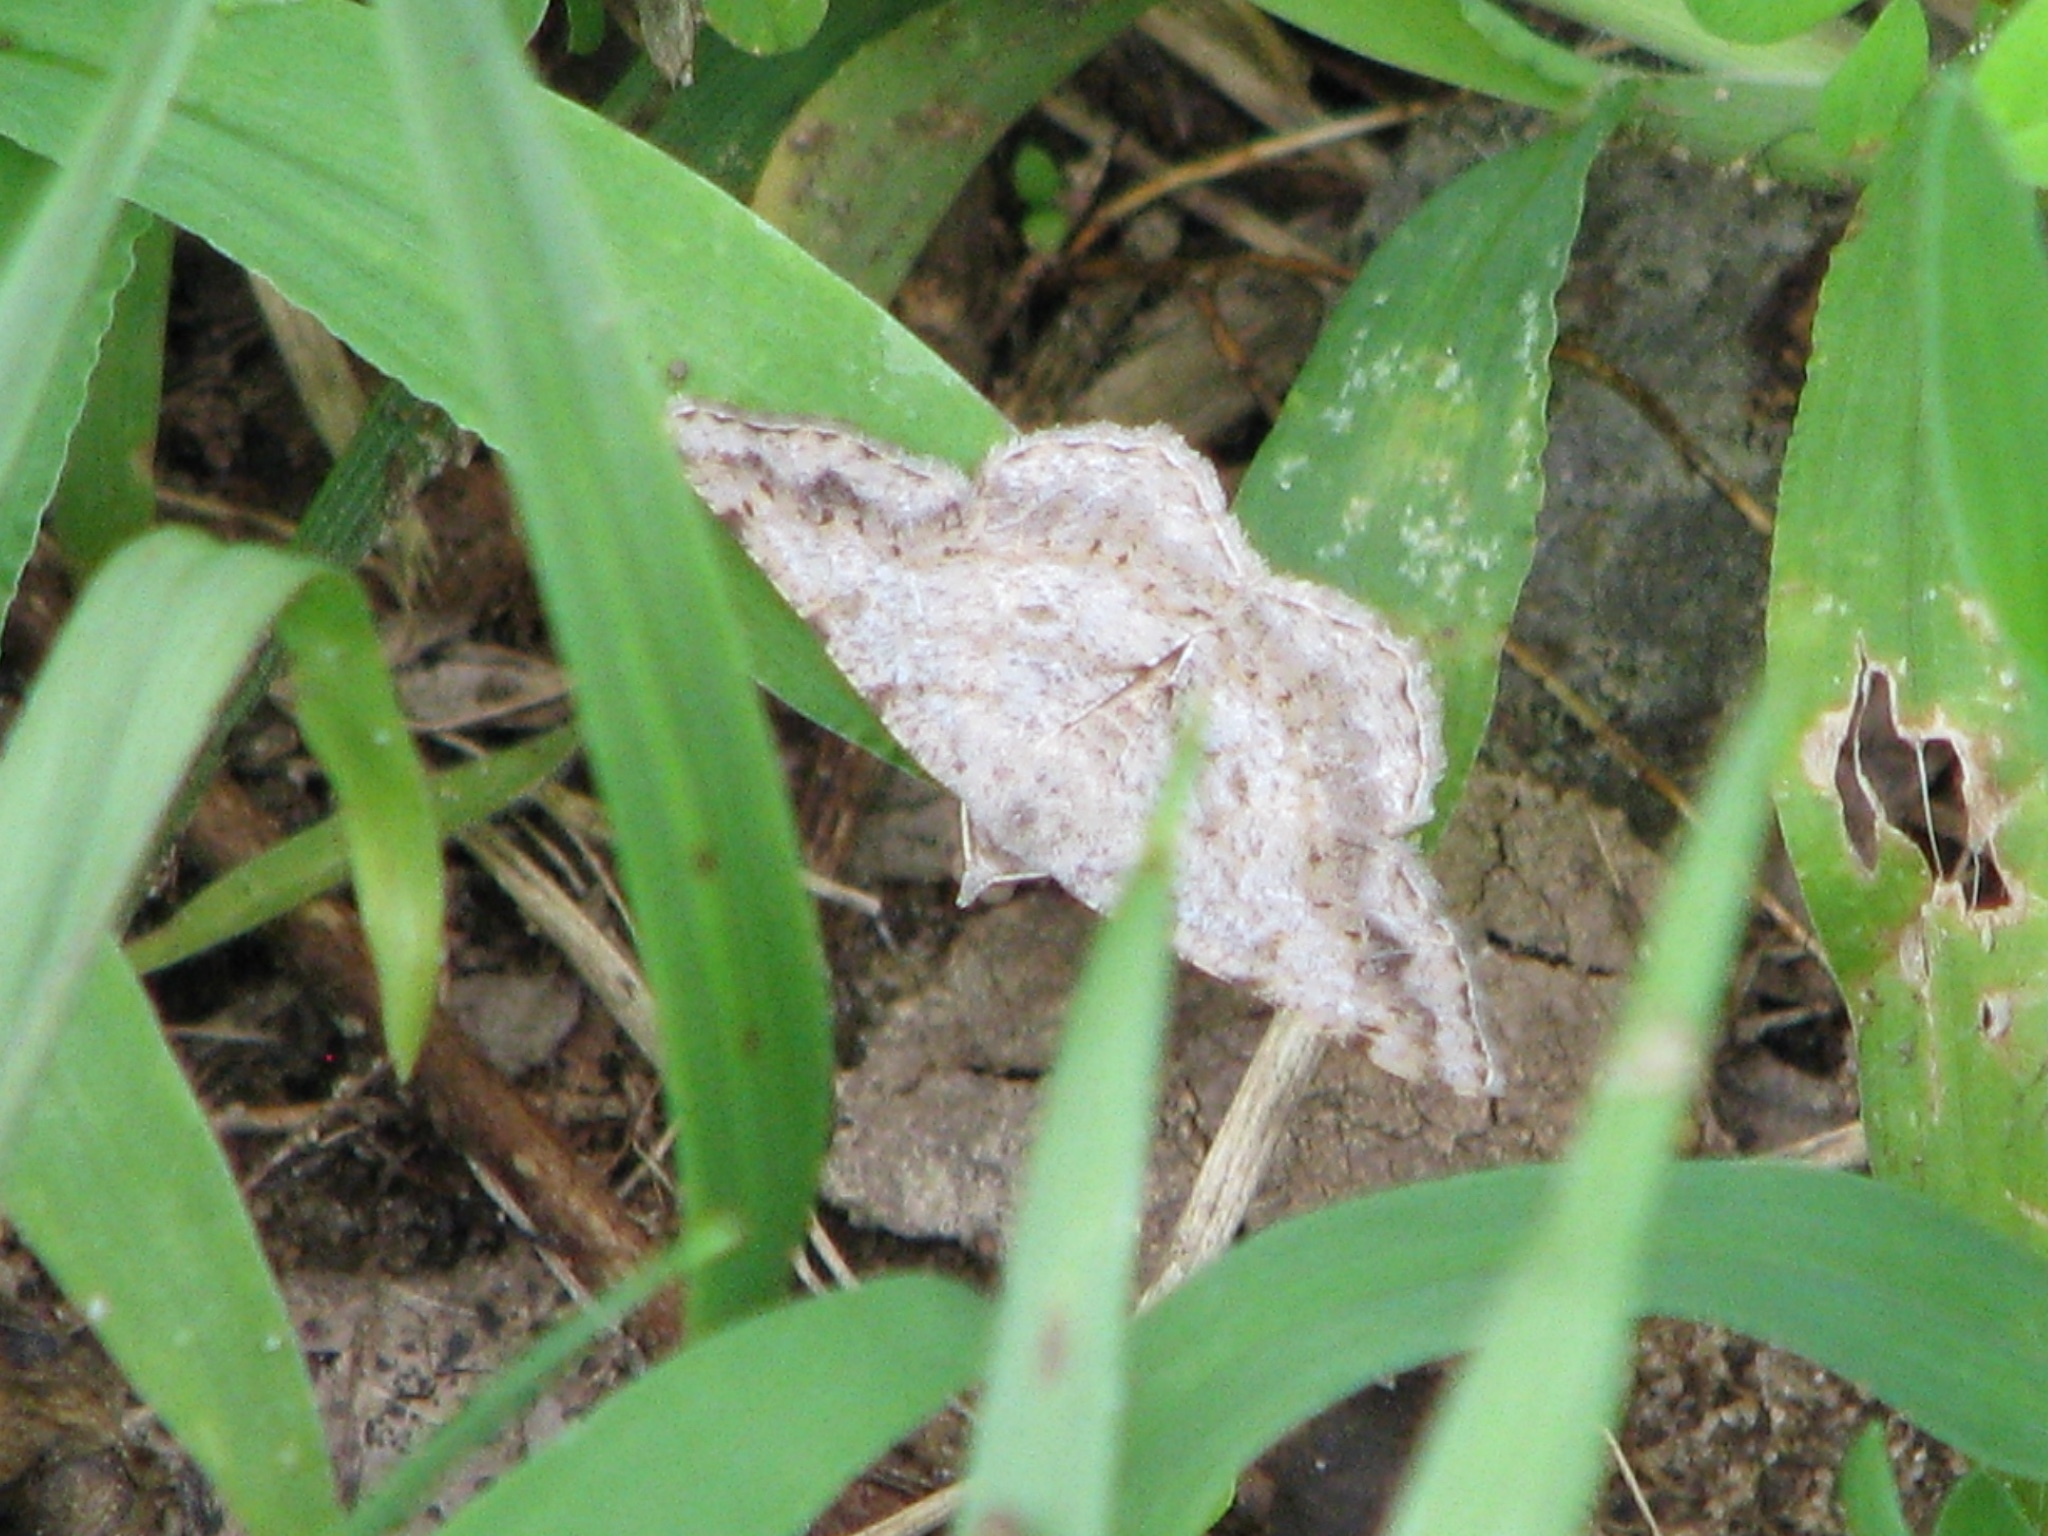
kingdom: Animalia
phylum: Arthropoda
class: Insecta
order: Lepidoptera
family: Geometridae
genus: Digrammia
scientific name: Digrammia ocellinata
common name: Faint-spotted angle
